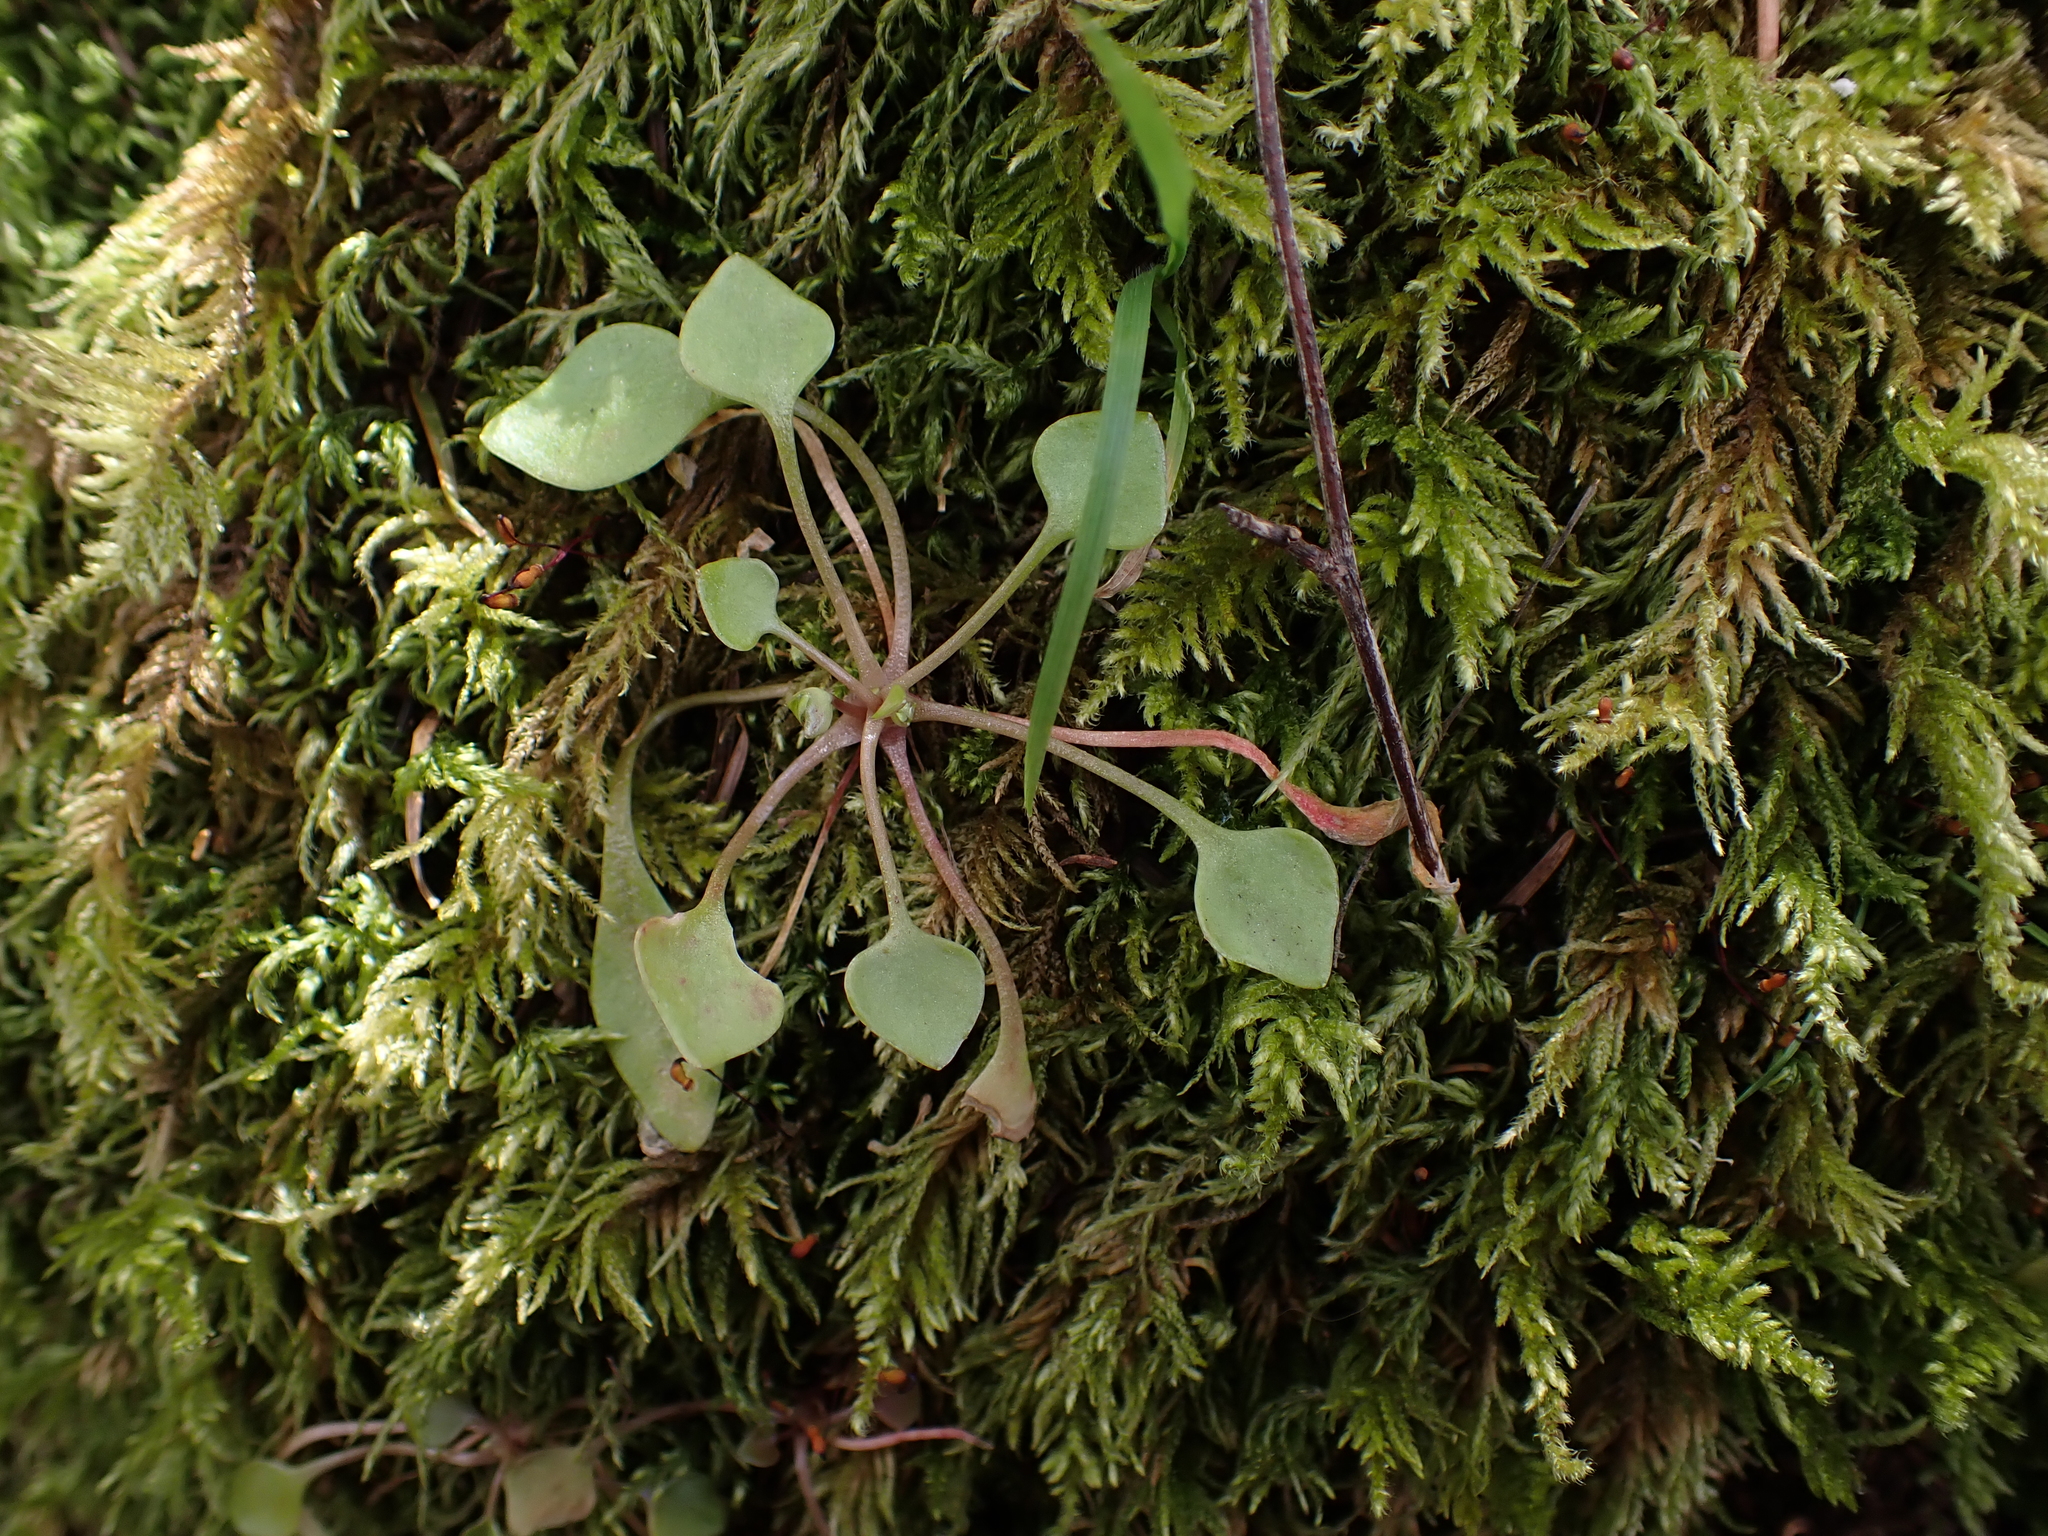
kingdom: Plantae
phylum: Tracheophyta
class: Magnoliopsida
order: Caryophyllales
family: Montiaceae
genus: Claytonia
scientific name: Claytonia rubra
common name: Erubescent miner's-lettuce
